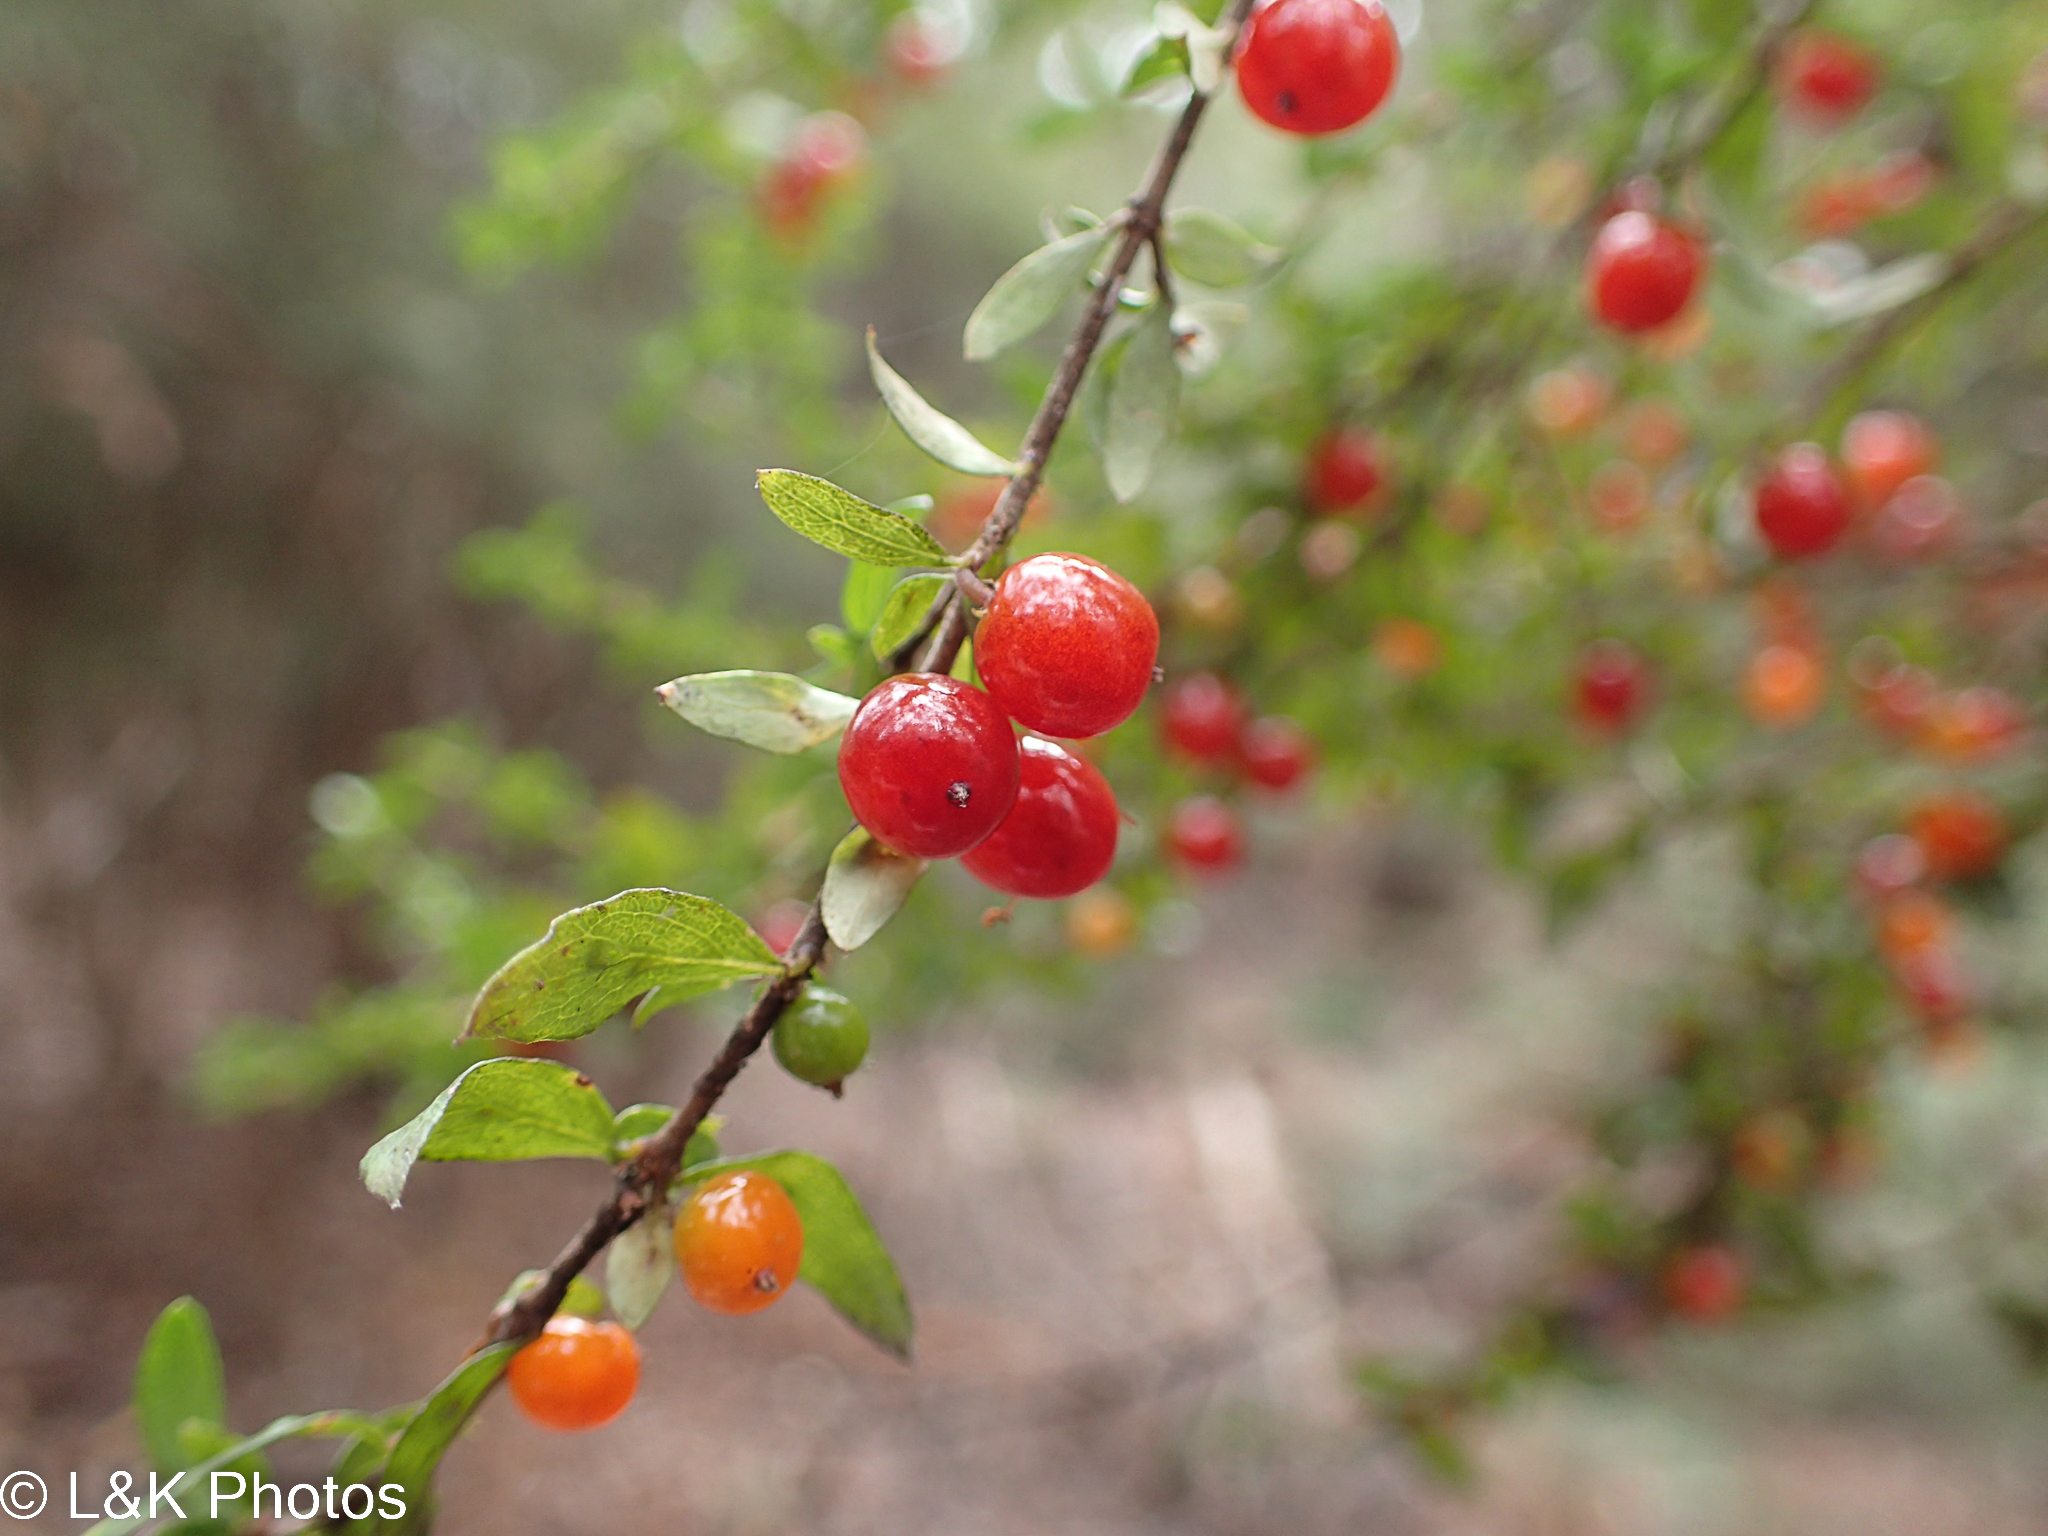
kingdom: Plantae
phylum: Tracheophyta
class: Magnoliopsida
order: Gentianales
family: Rubiaceae
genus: Coprosma
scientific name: Coprosma quadrifida
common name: Prickly currantbush
